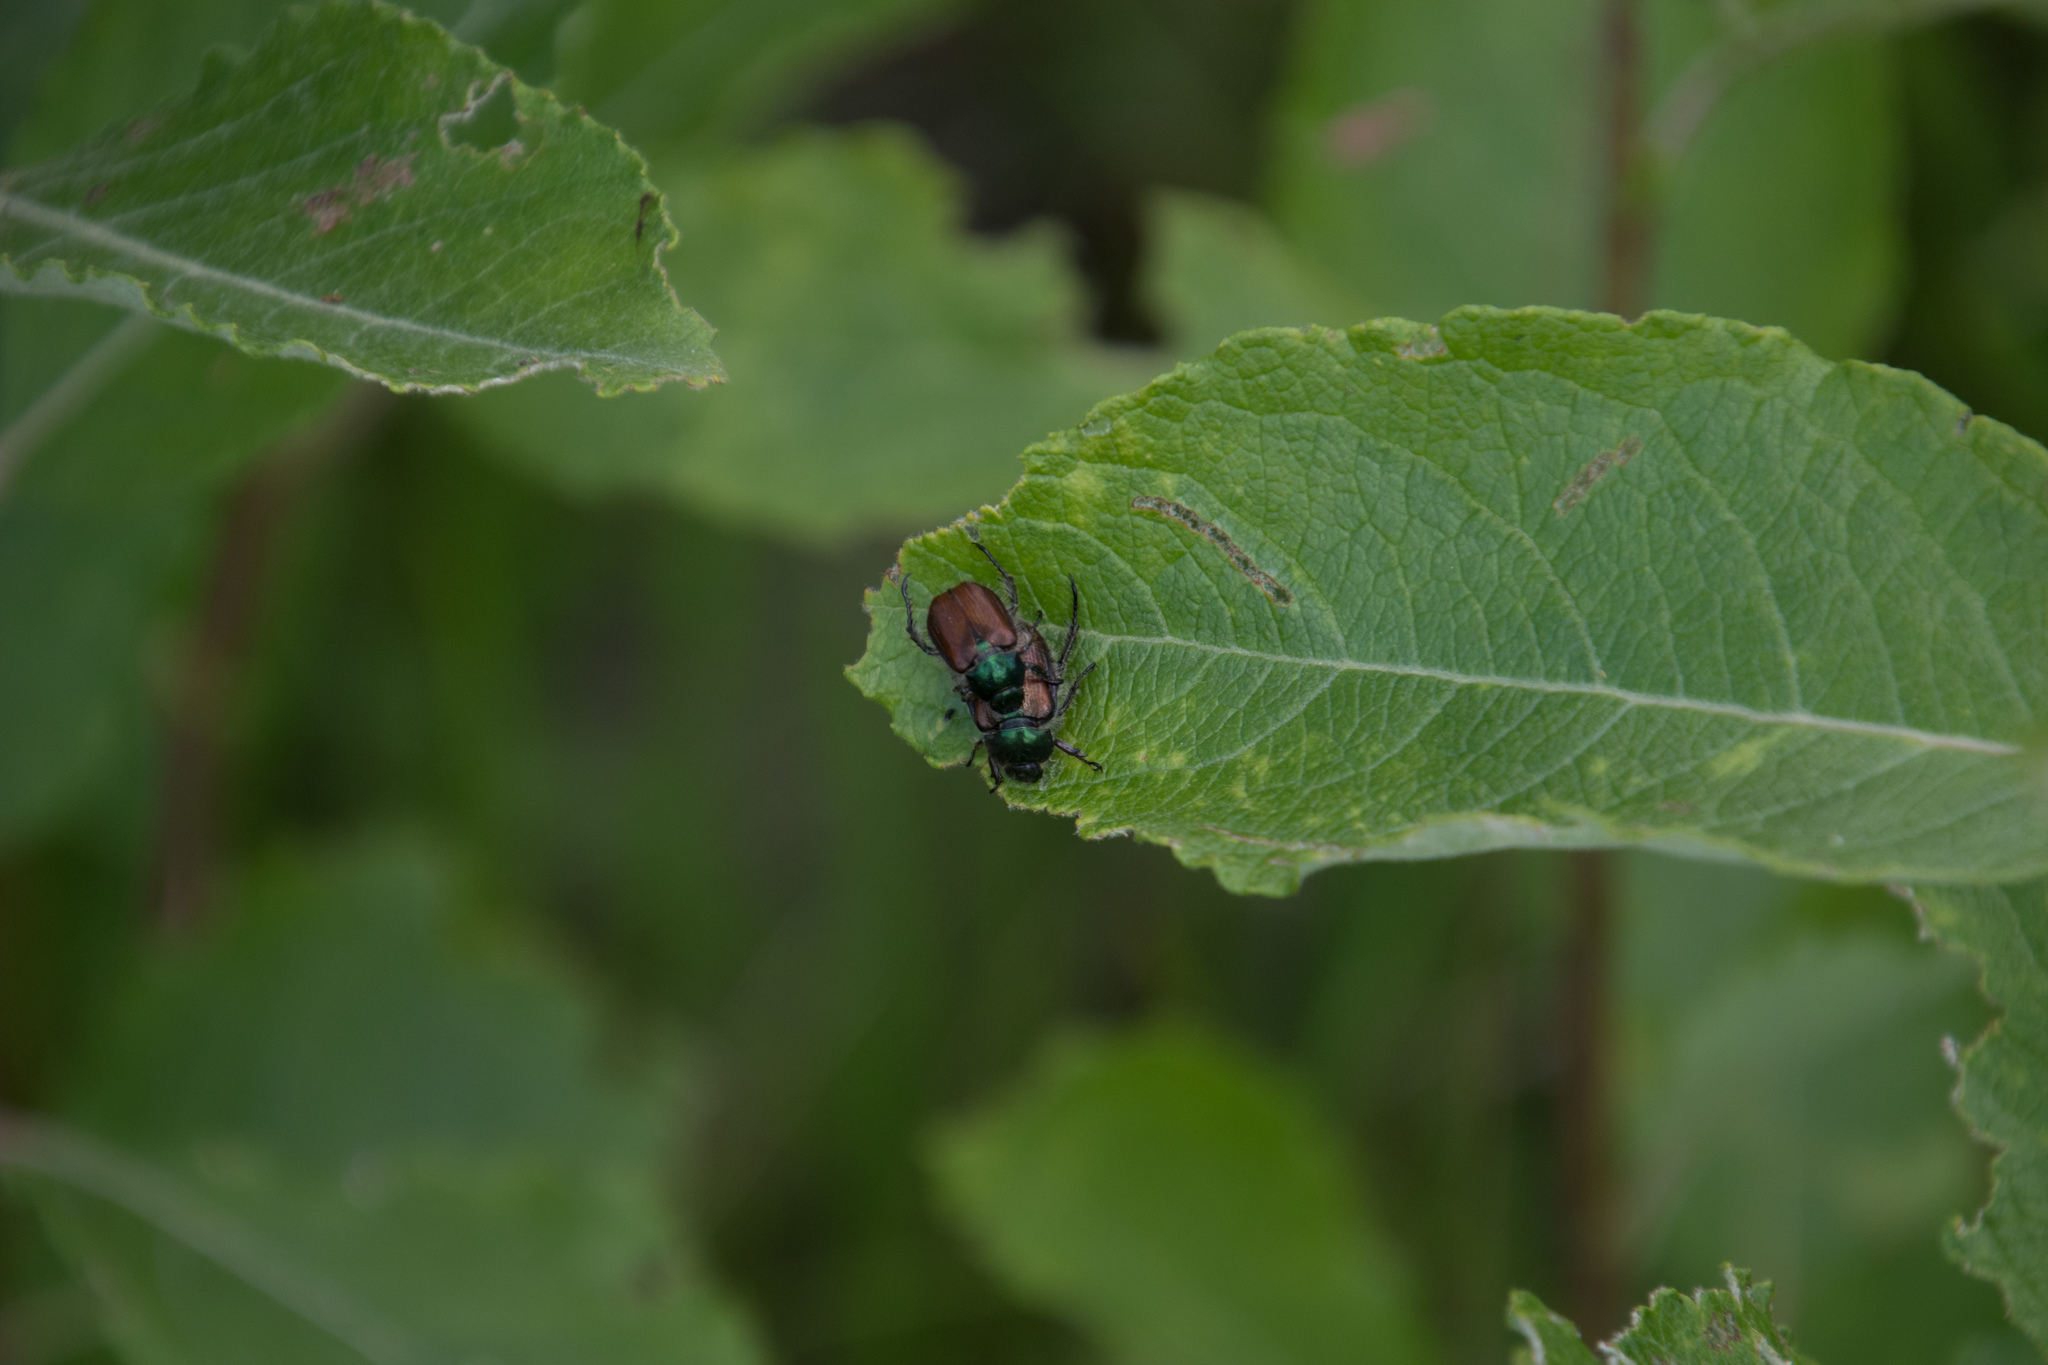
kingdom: Animalia
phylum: Arthropoda
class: Insecta
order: Coleoptera
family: Scarabaeidae
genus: Phyllopertha
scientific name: Phyllopertha horticola
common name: Garden chafer
